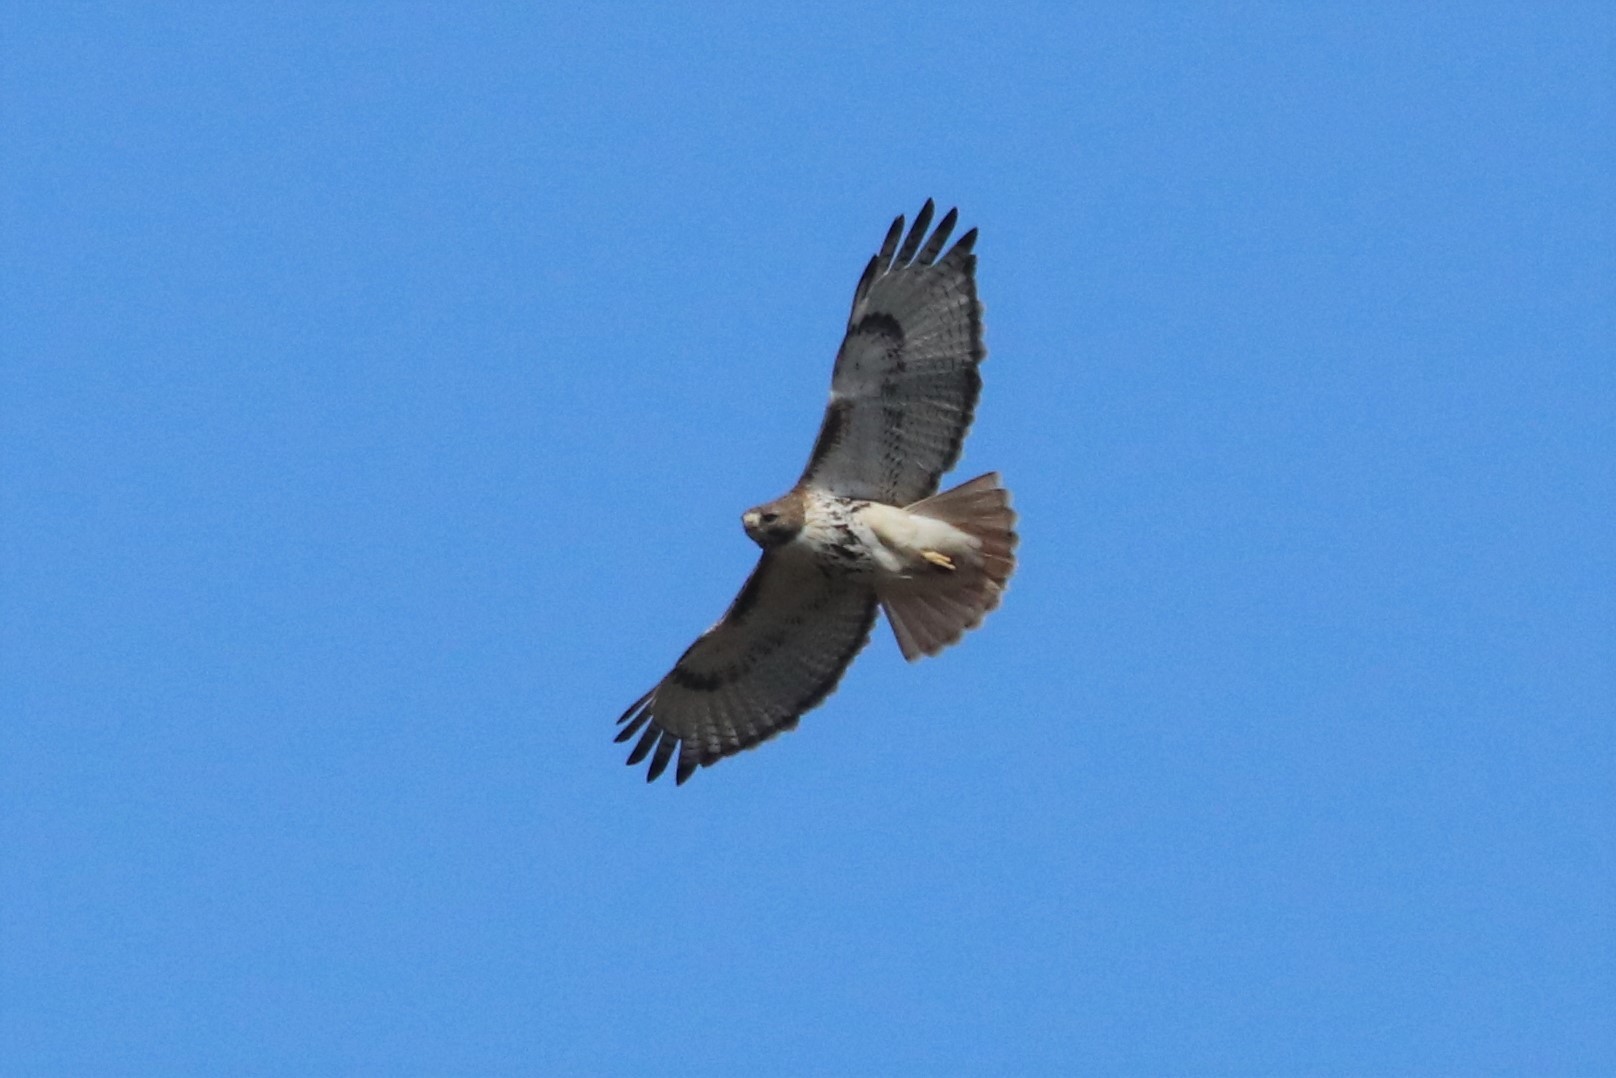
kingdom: Animalia
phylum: Chordata
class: Aves
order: Accipitriformes
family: Accipitridae
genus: Buteo
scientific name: Buteo jamaicensis
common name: Red-tailed hawk
